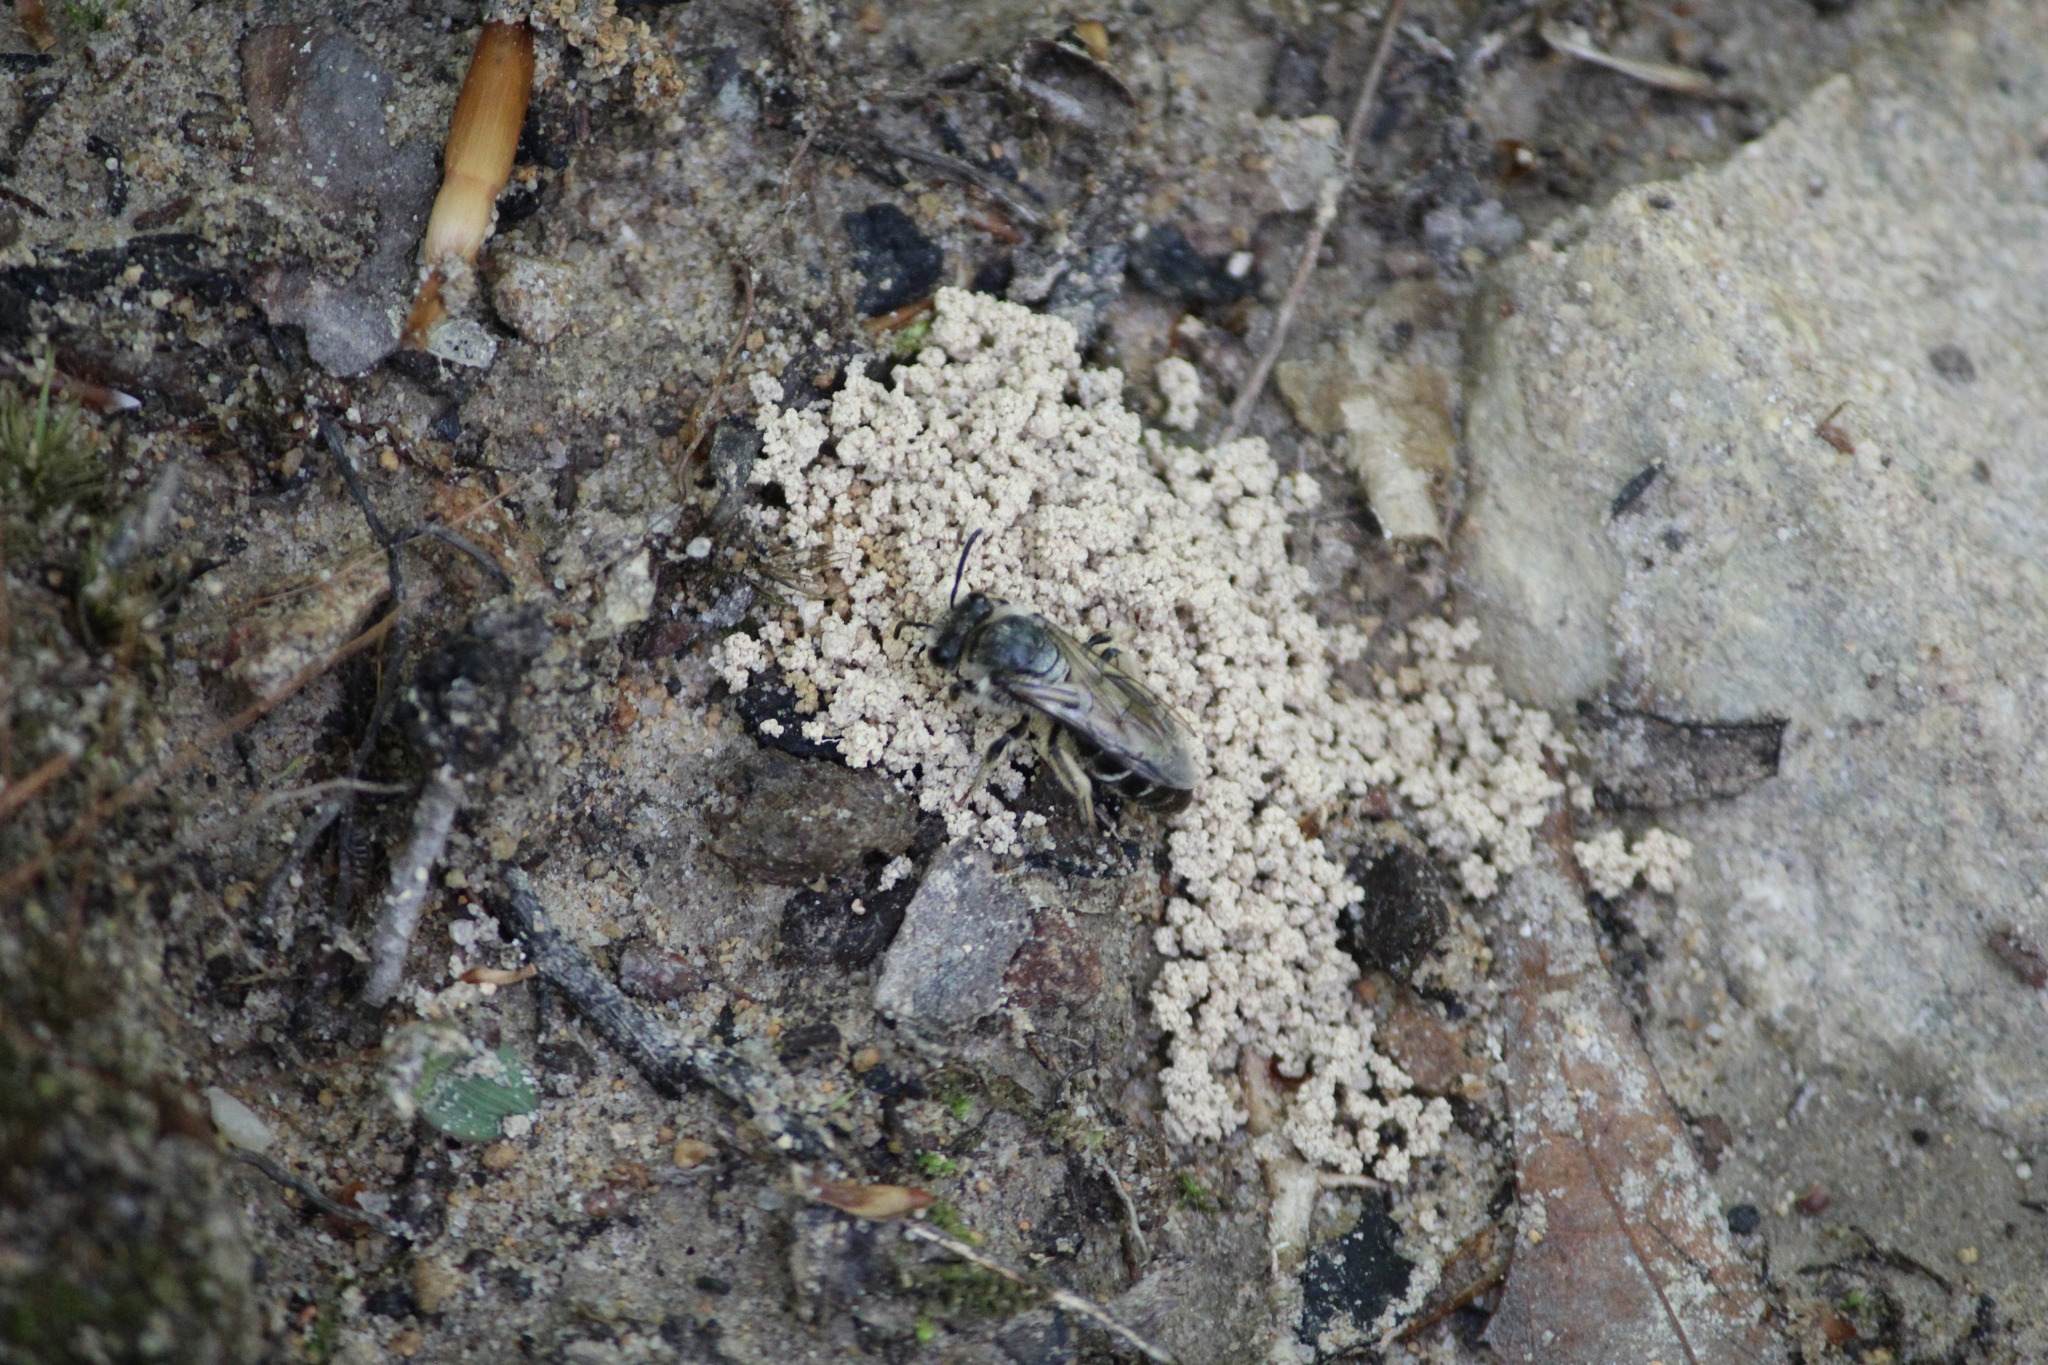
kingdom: Animalia
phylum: Arthropoda
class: Insecta
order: Hymenoptera
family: Colletidae
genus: Colletes
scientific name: Colletes inaequalis
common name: Unequal cellophane bee
